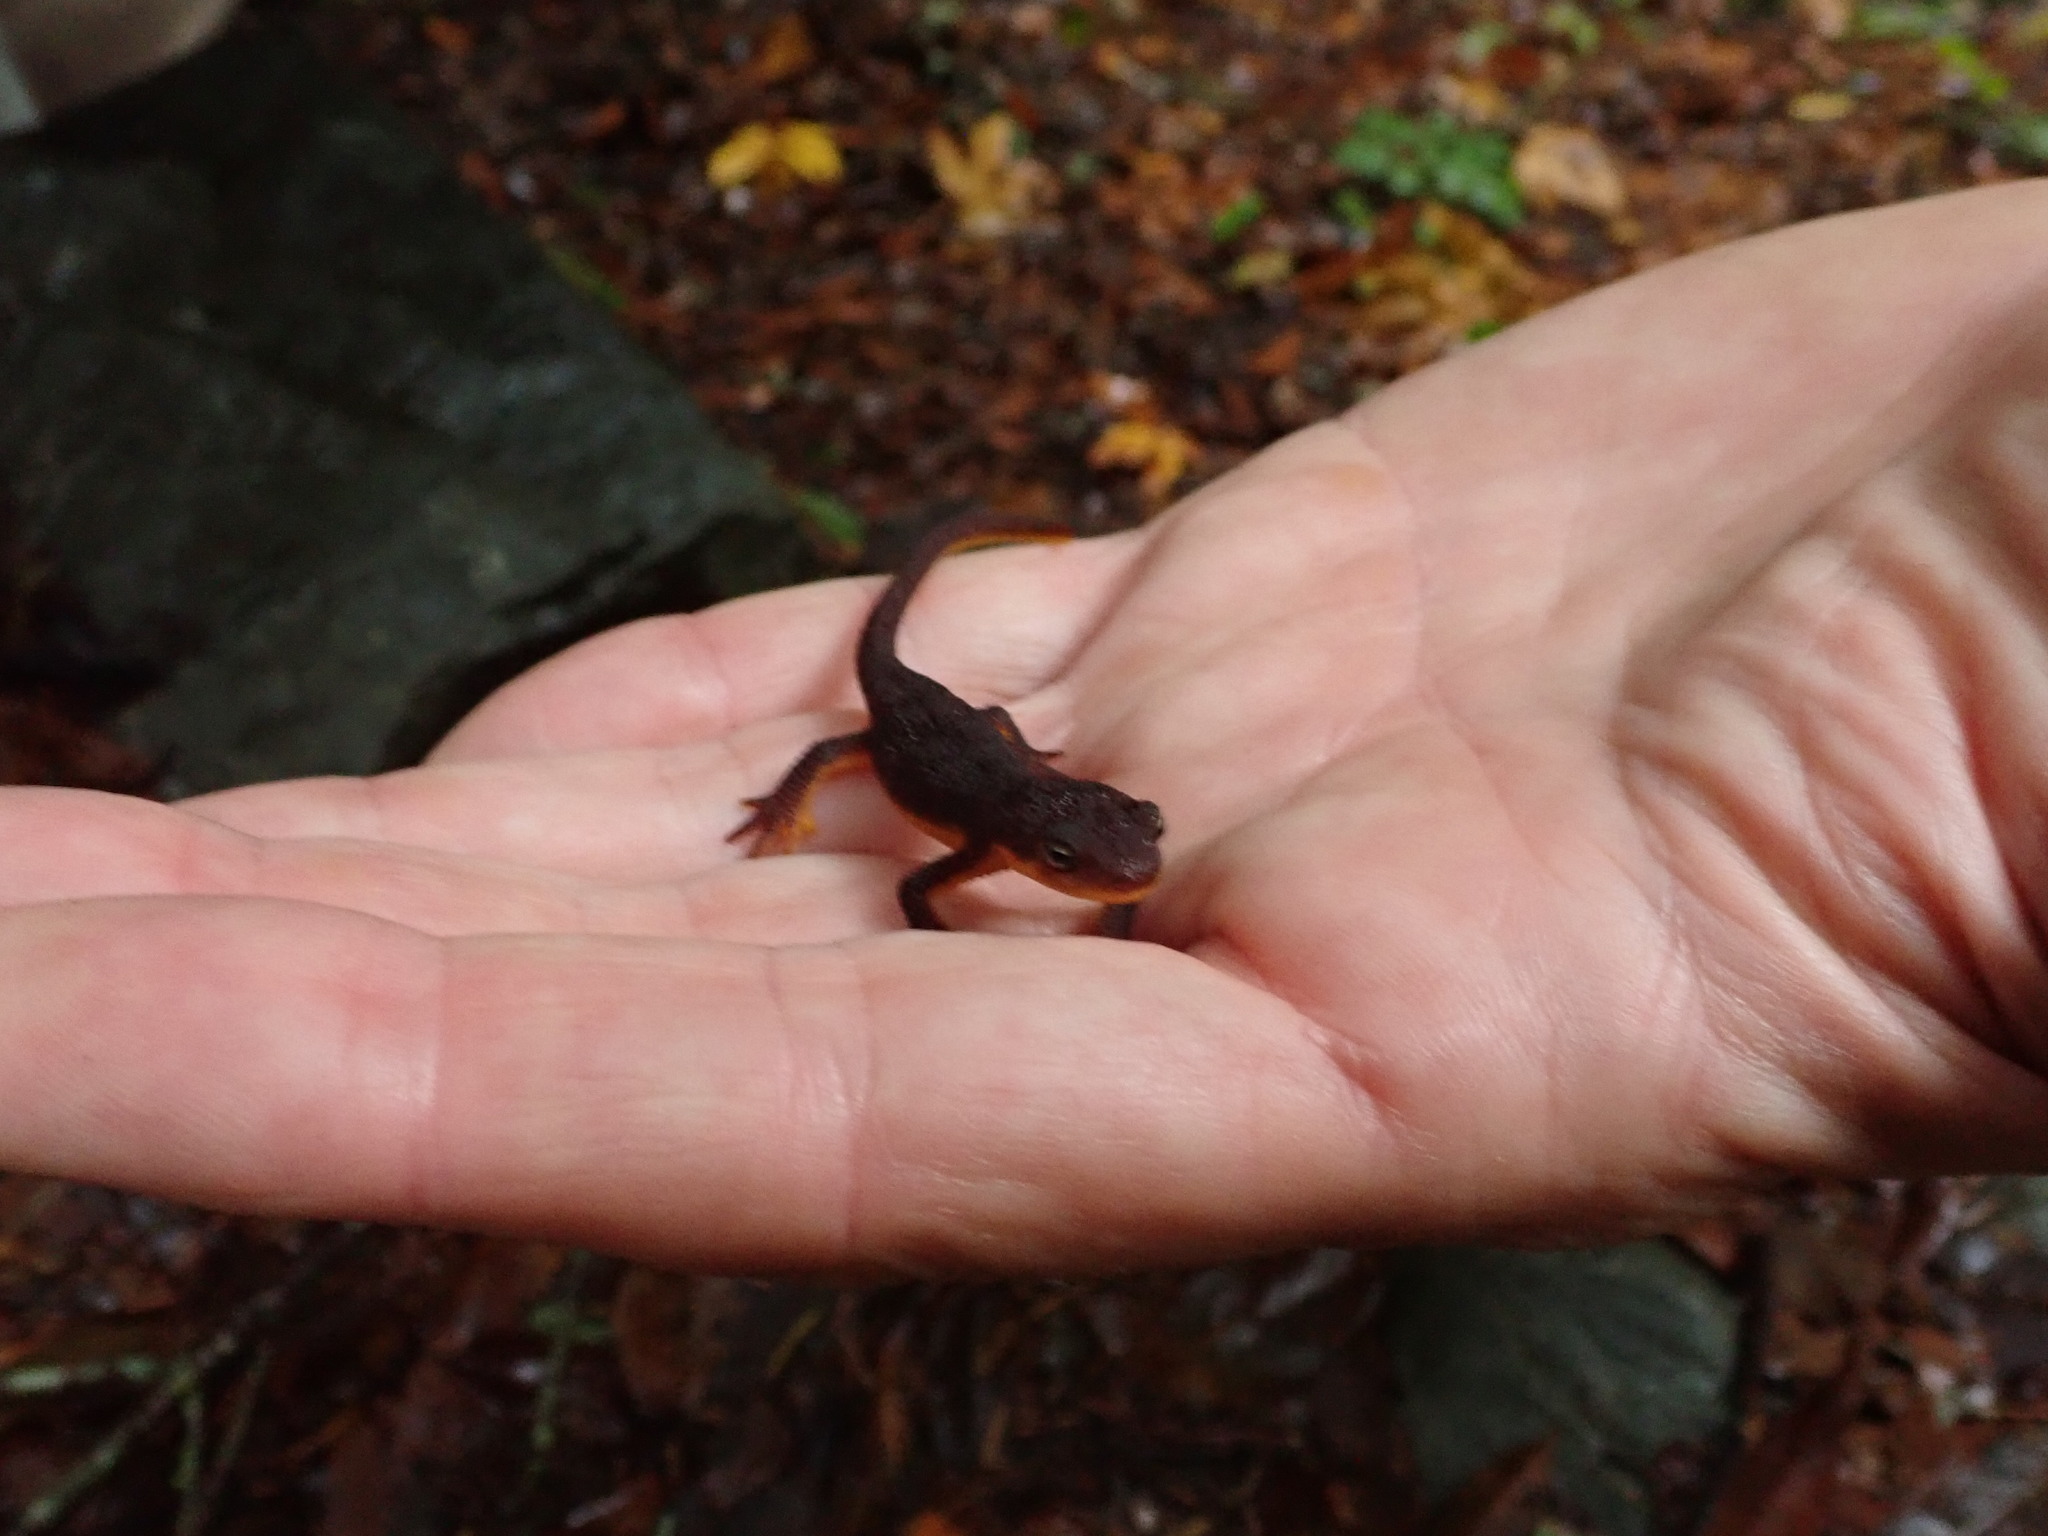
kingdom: Animalia
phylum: Chordata
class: Amphibia
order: Caudata
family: Salamandridae
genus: Taricha
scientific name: Taricha granulosa
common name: Roughskin newt
